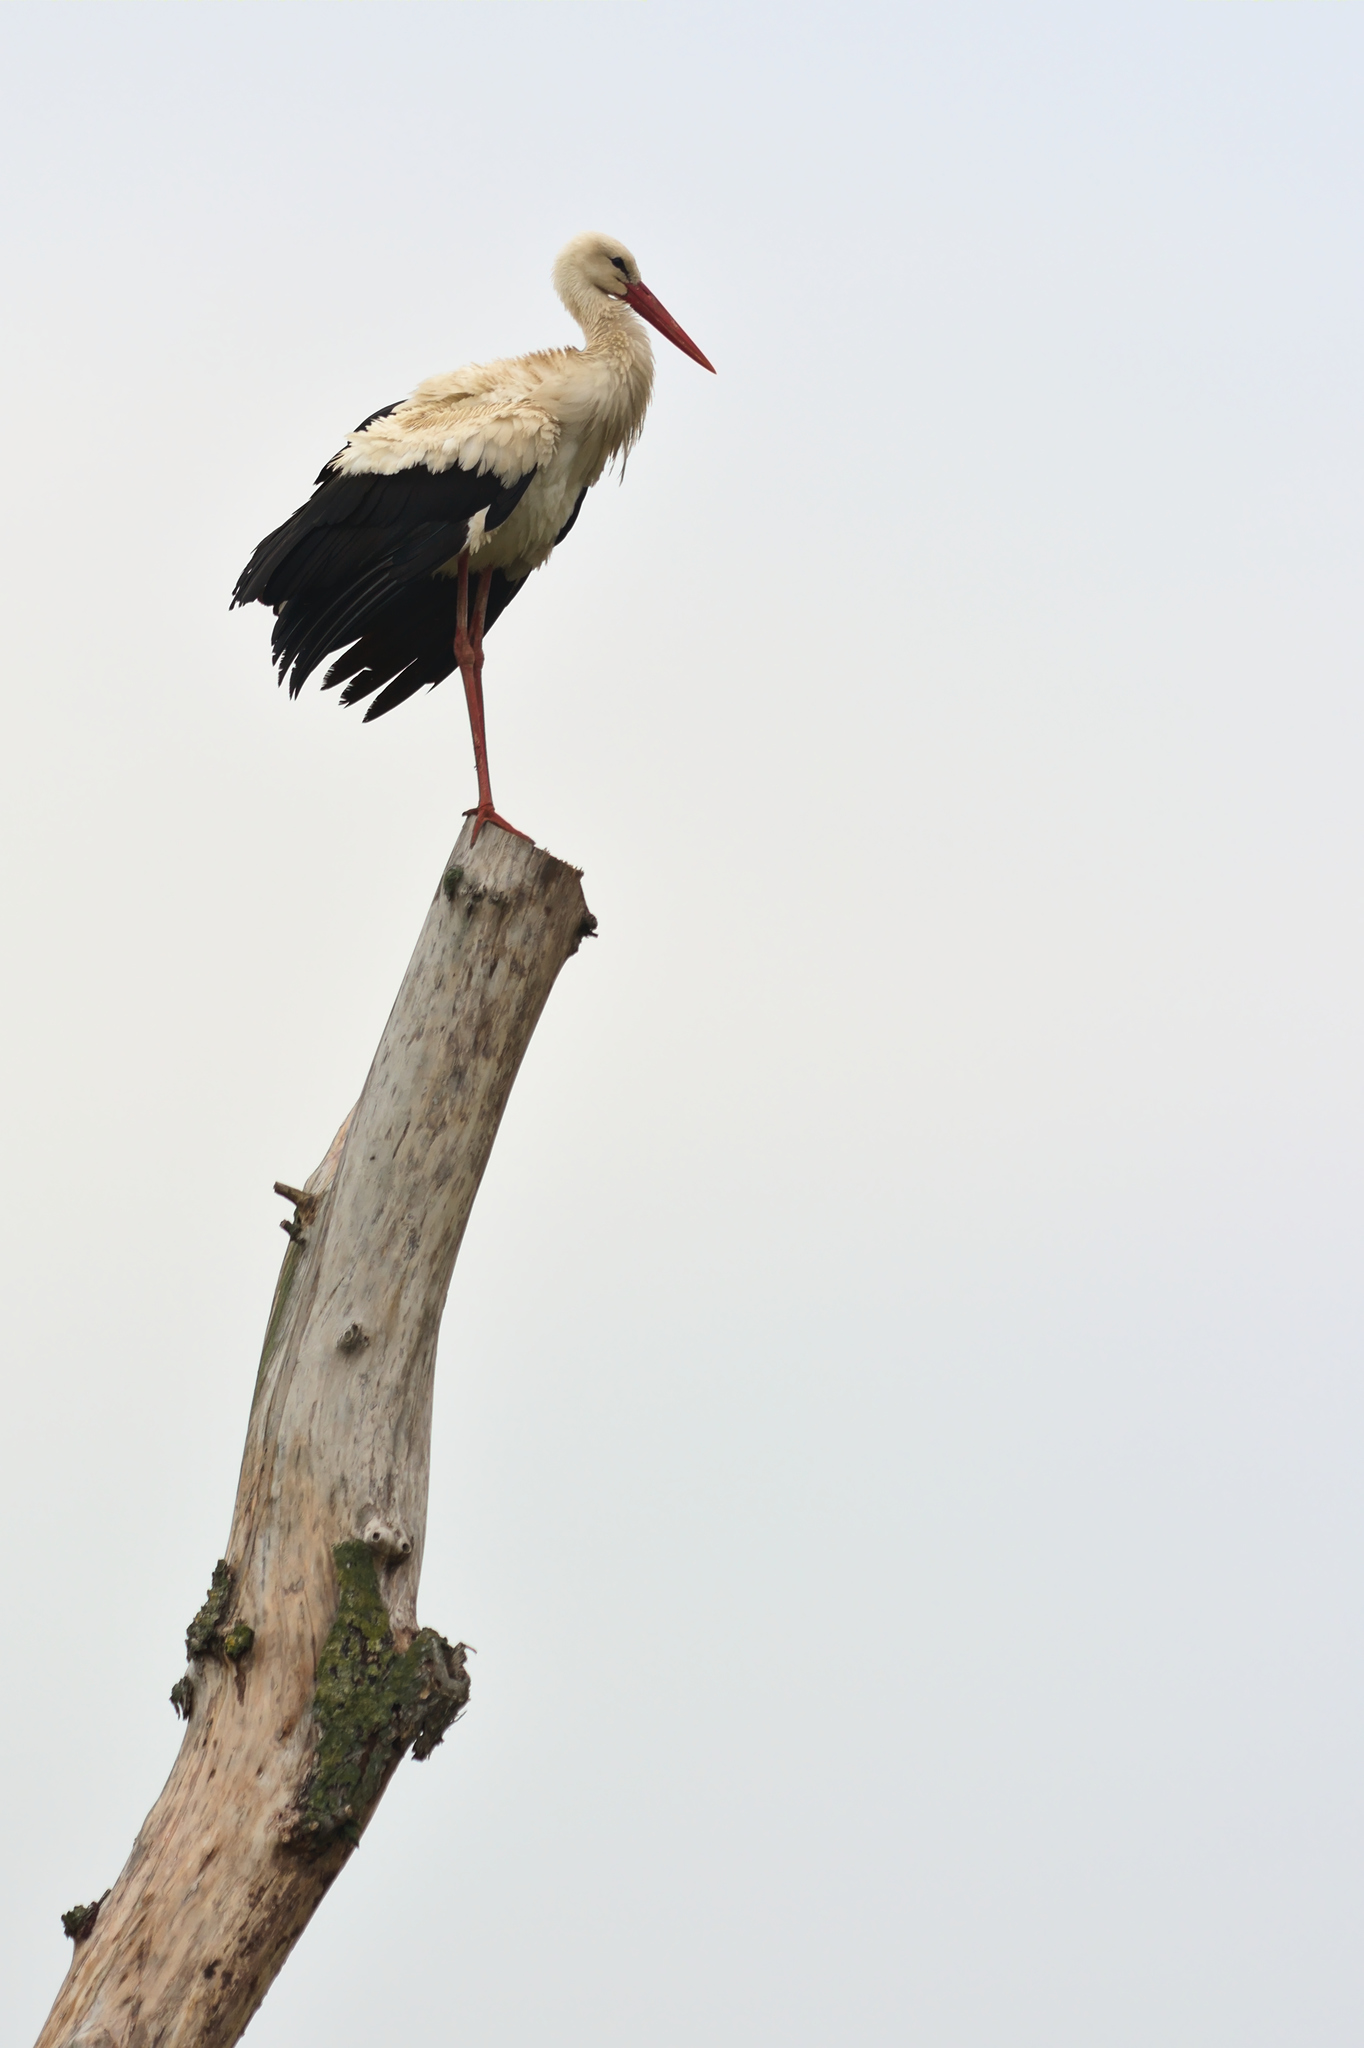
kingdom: Animalia
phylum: Chordata
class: Aves
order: Ciconiiformes
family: Ciconiidae
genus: Ciconia
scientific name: Ciconia ciconia
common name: White stork
